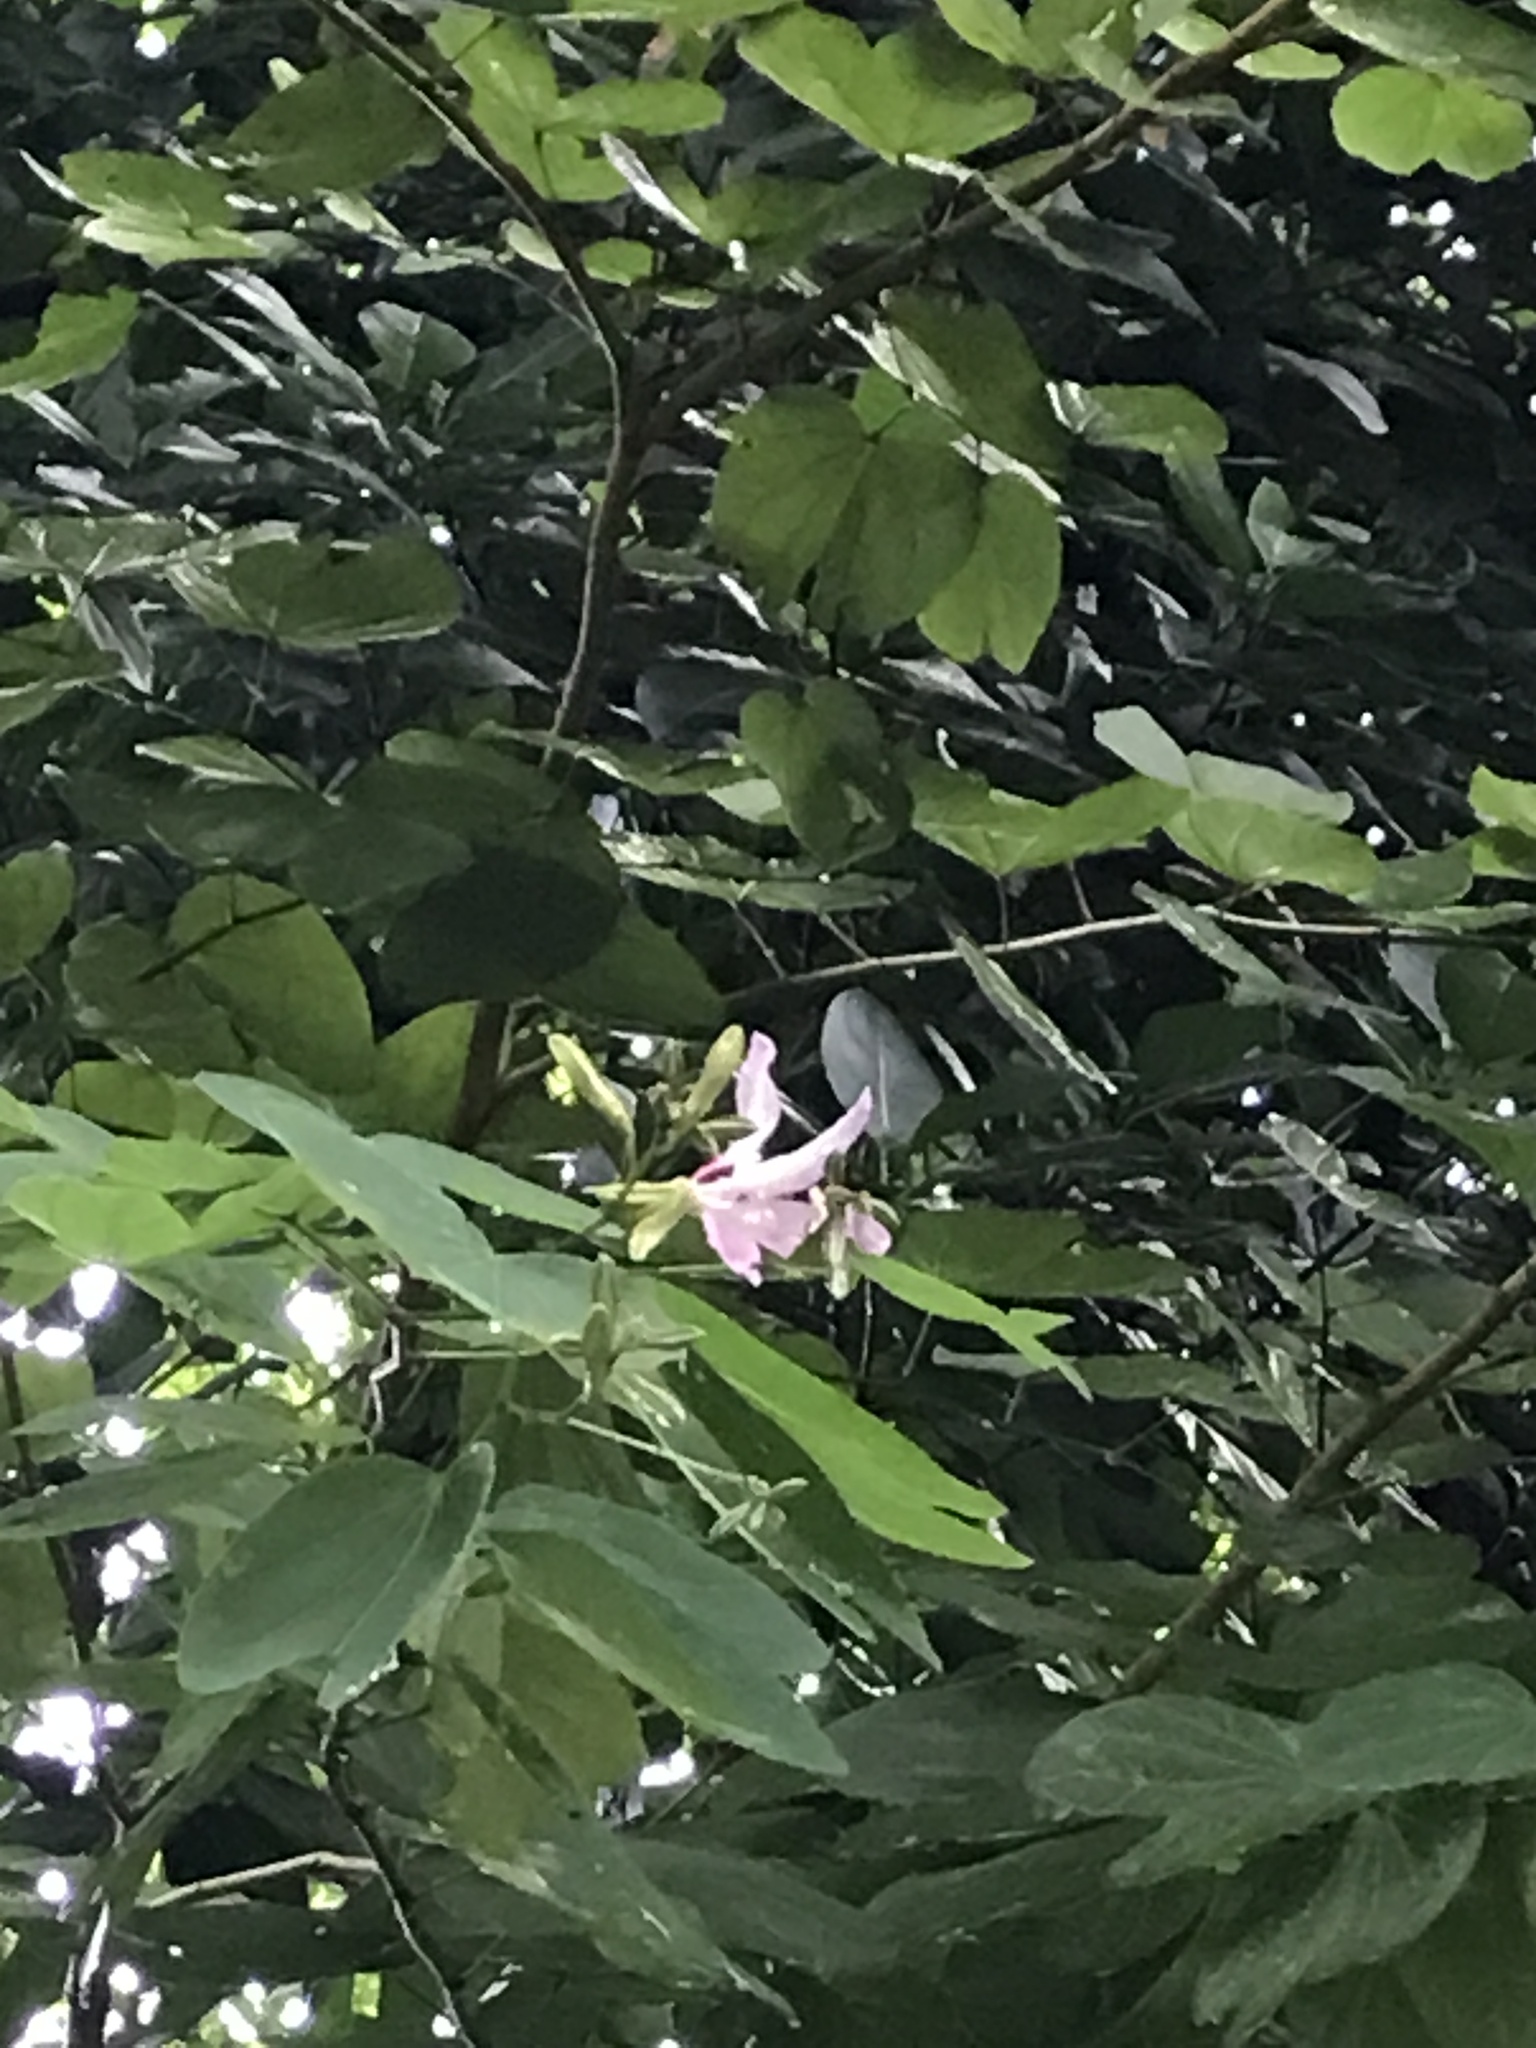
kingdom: Plantae
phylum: Tracheophyta
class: Magnoliopsida
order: Fabales
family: Fabaceae
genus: Bauhinia
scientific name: Bauhinia purpurea
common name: Butterfly-tree
